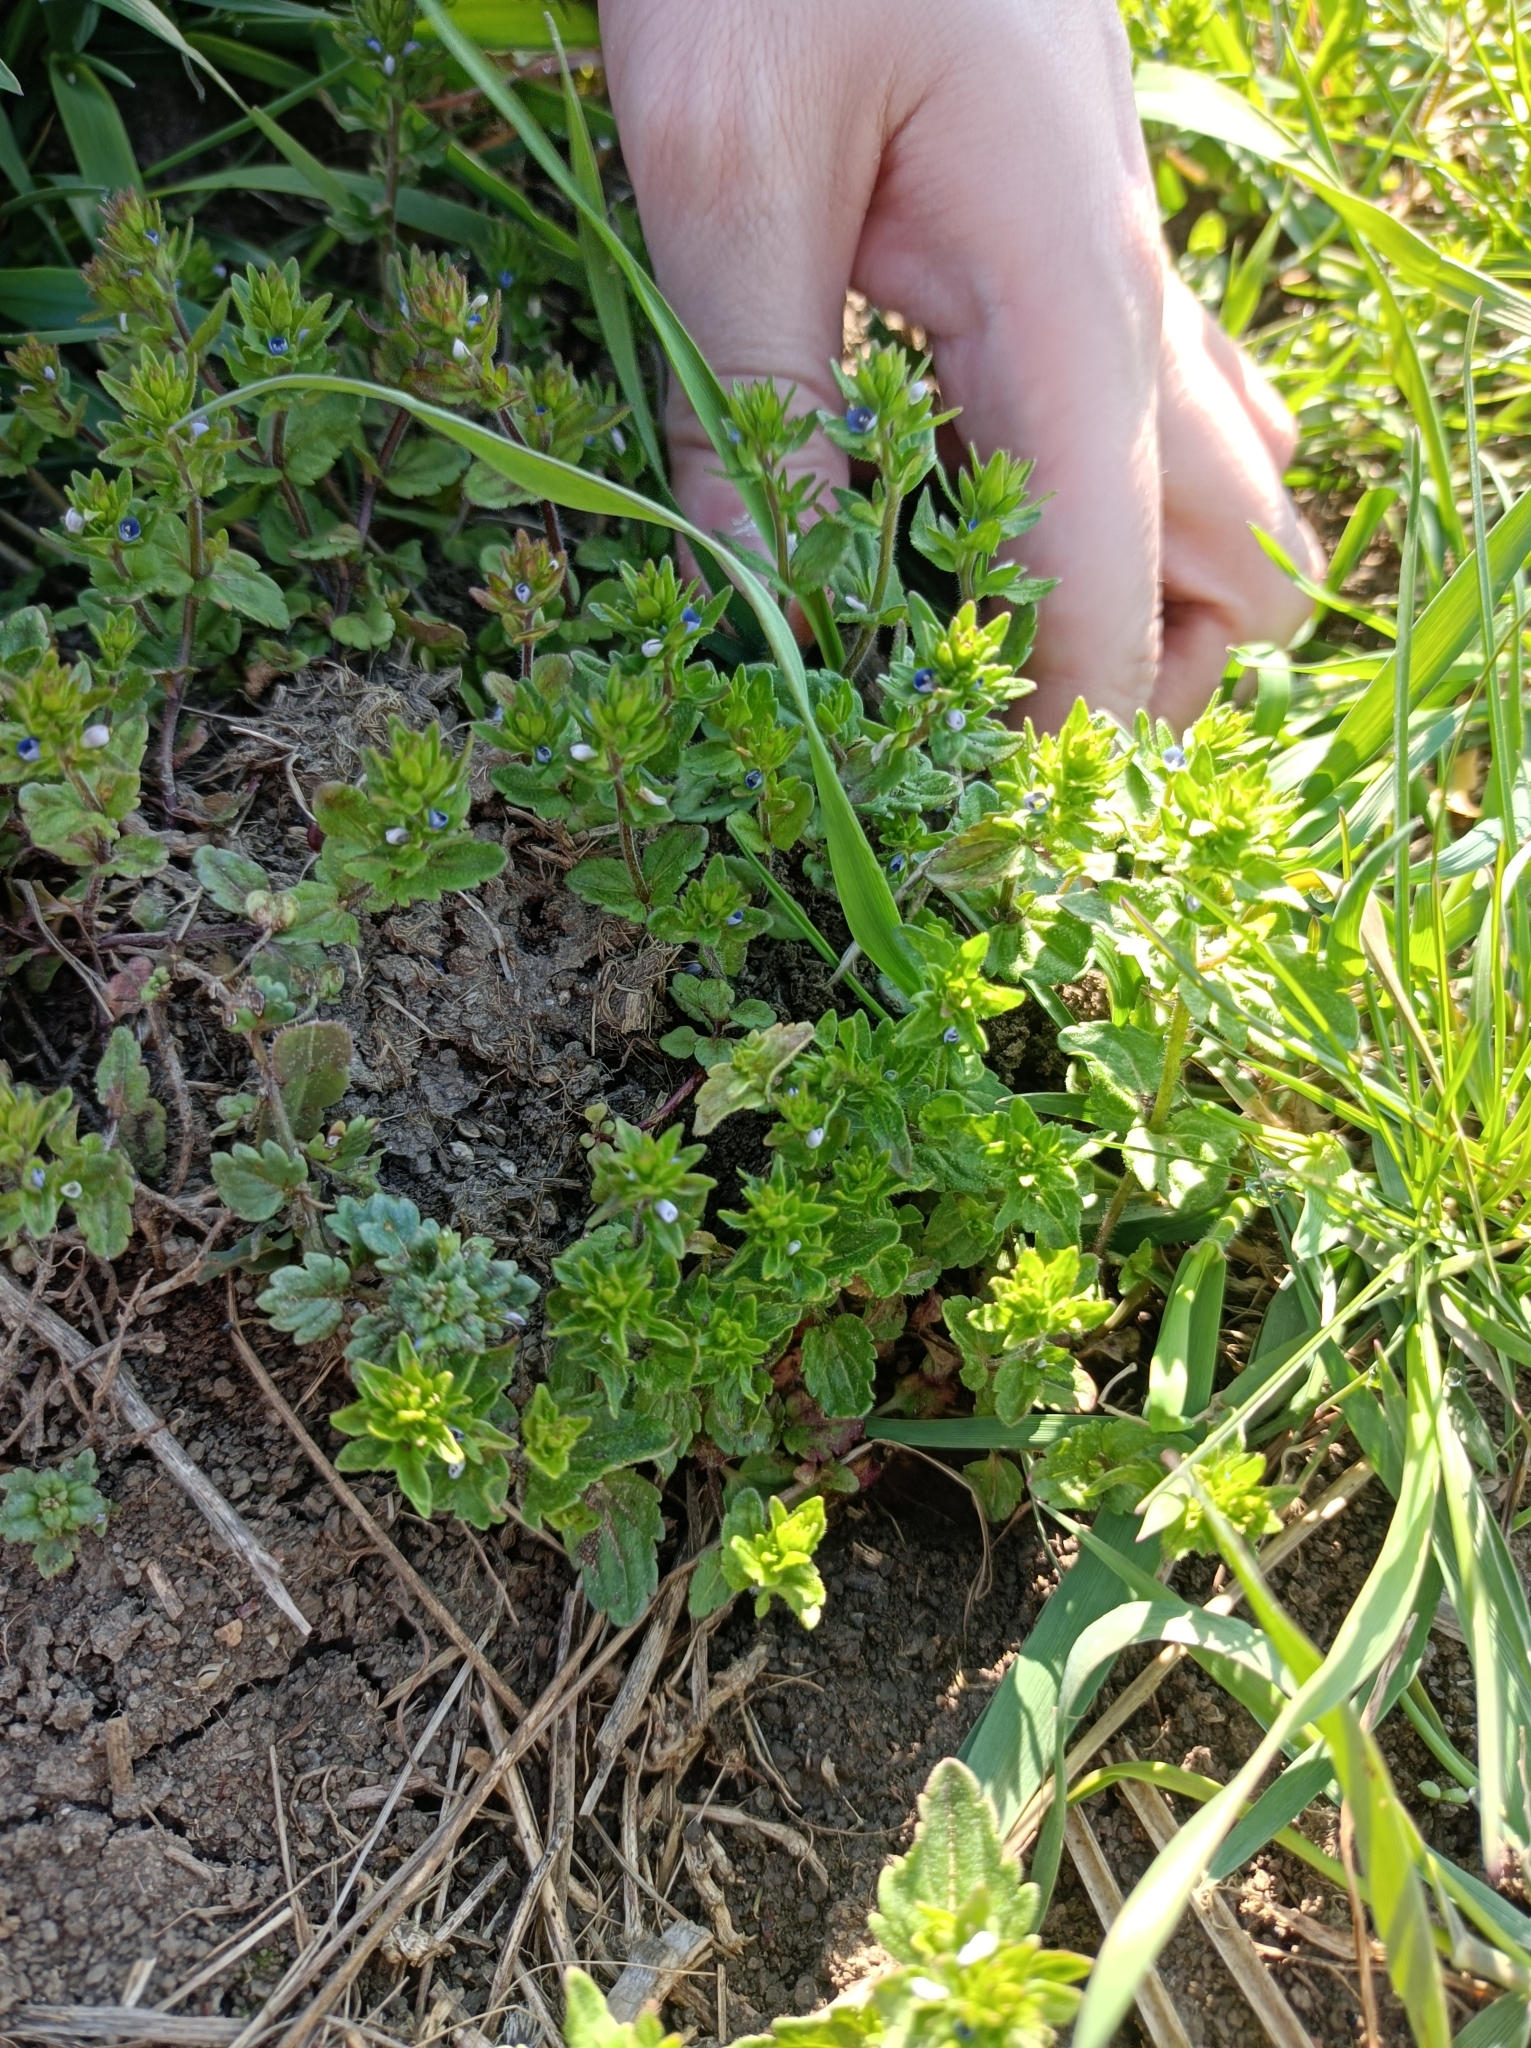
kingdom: Plantae
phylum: Tracheophyta
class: Magnoliopsida
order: Lamiales
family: Plantaginaceae
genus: Veronica
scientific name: Veronica arvensis
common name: Corn speedwell
